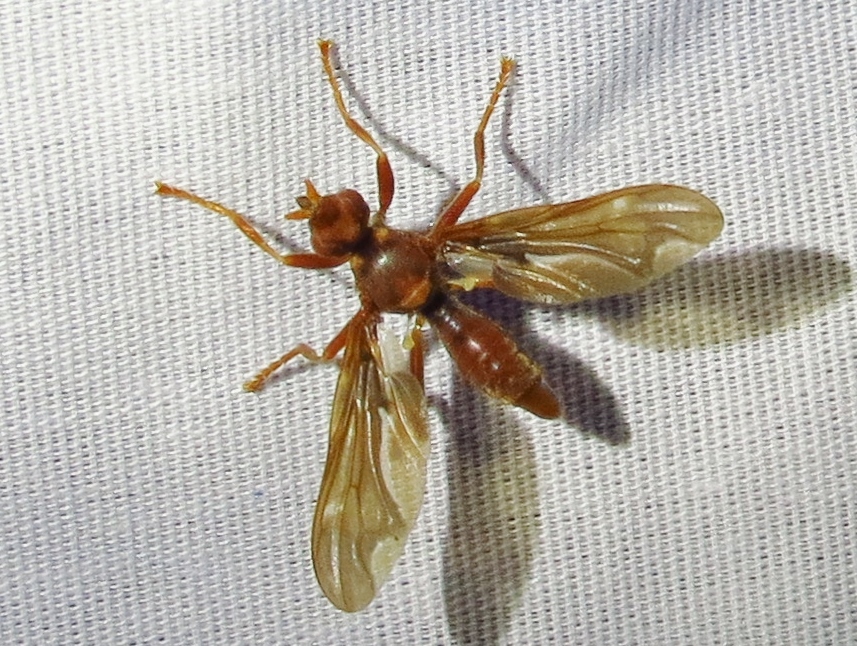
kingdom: Animalia
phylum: Arthropoda
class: Insecta
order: Diptera
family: Pyrgotidae
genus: Pyrgota
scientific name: Pyrgota undata
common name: Waved light fly
